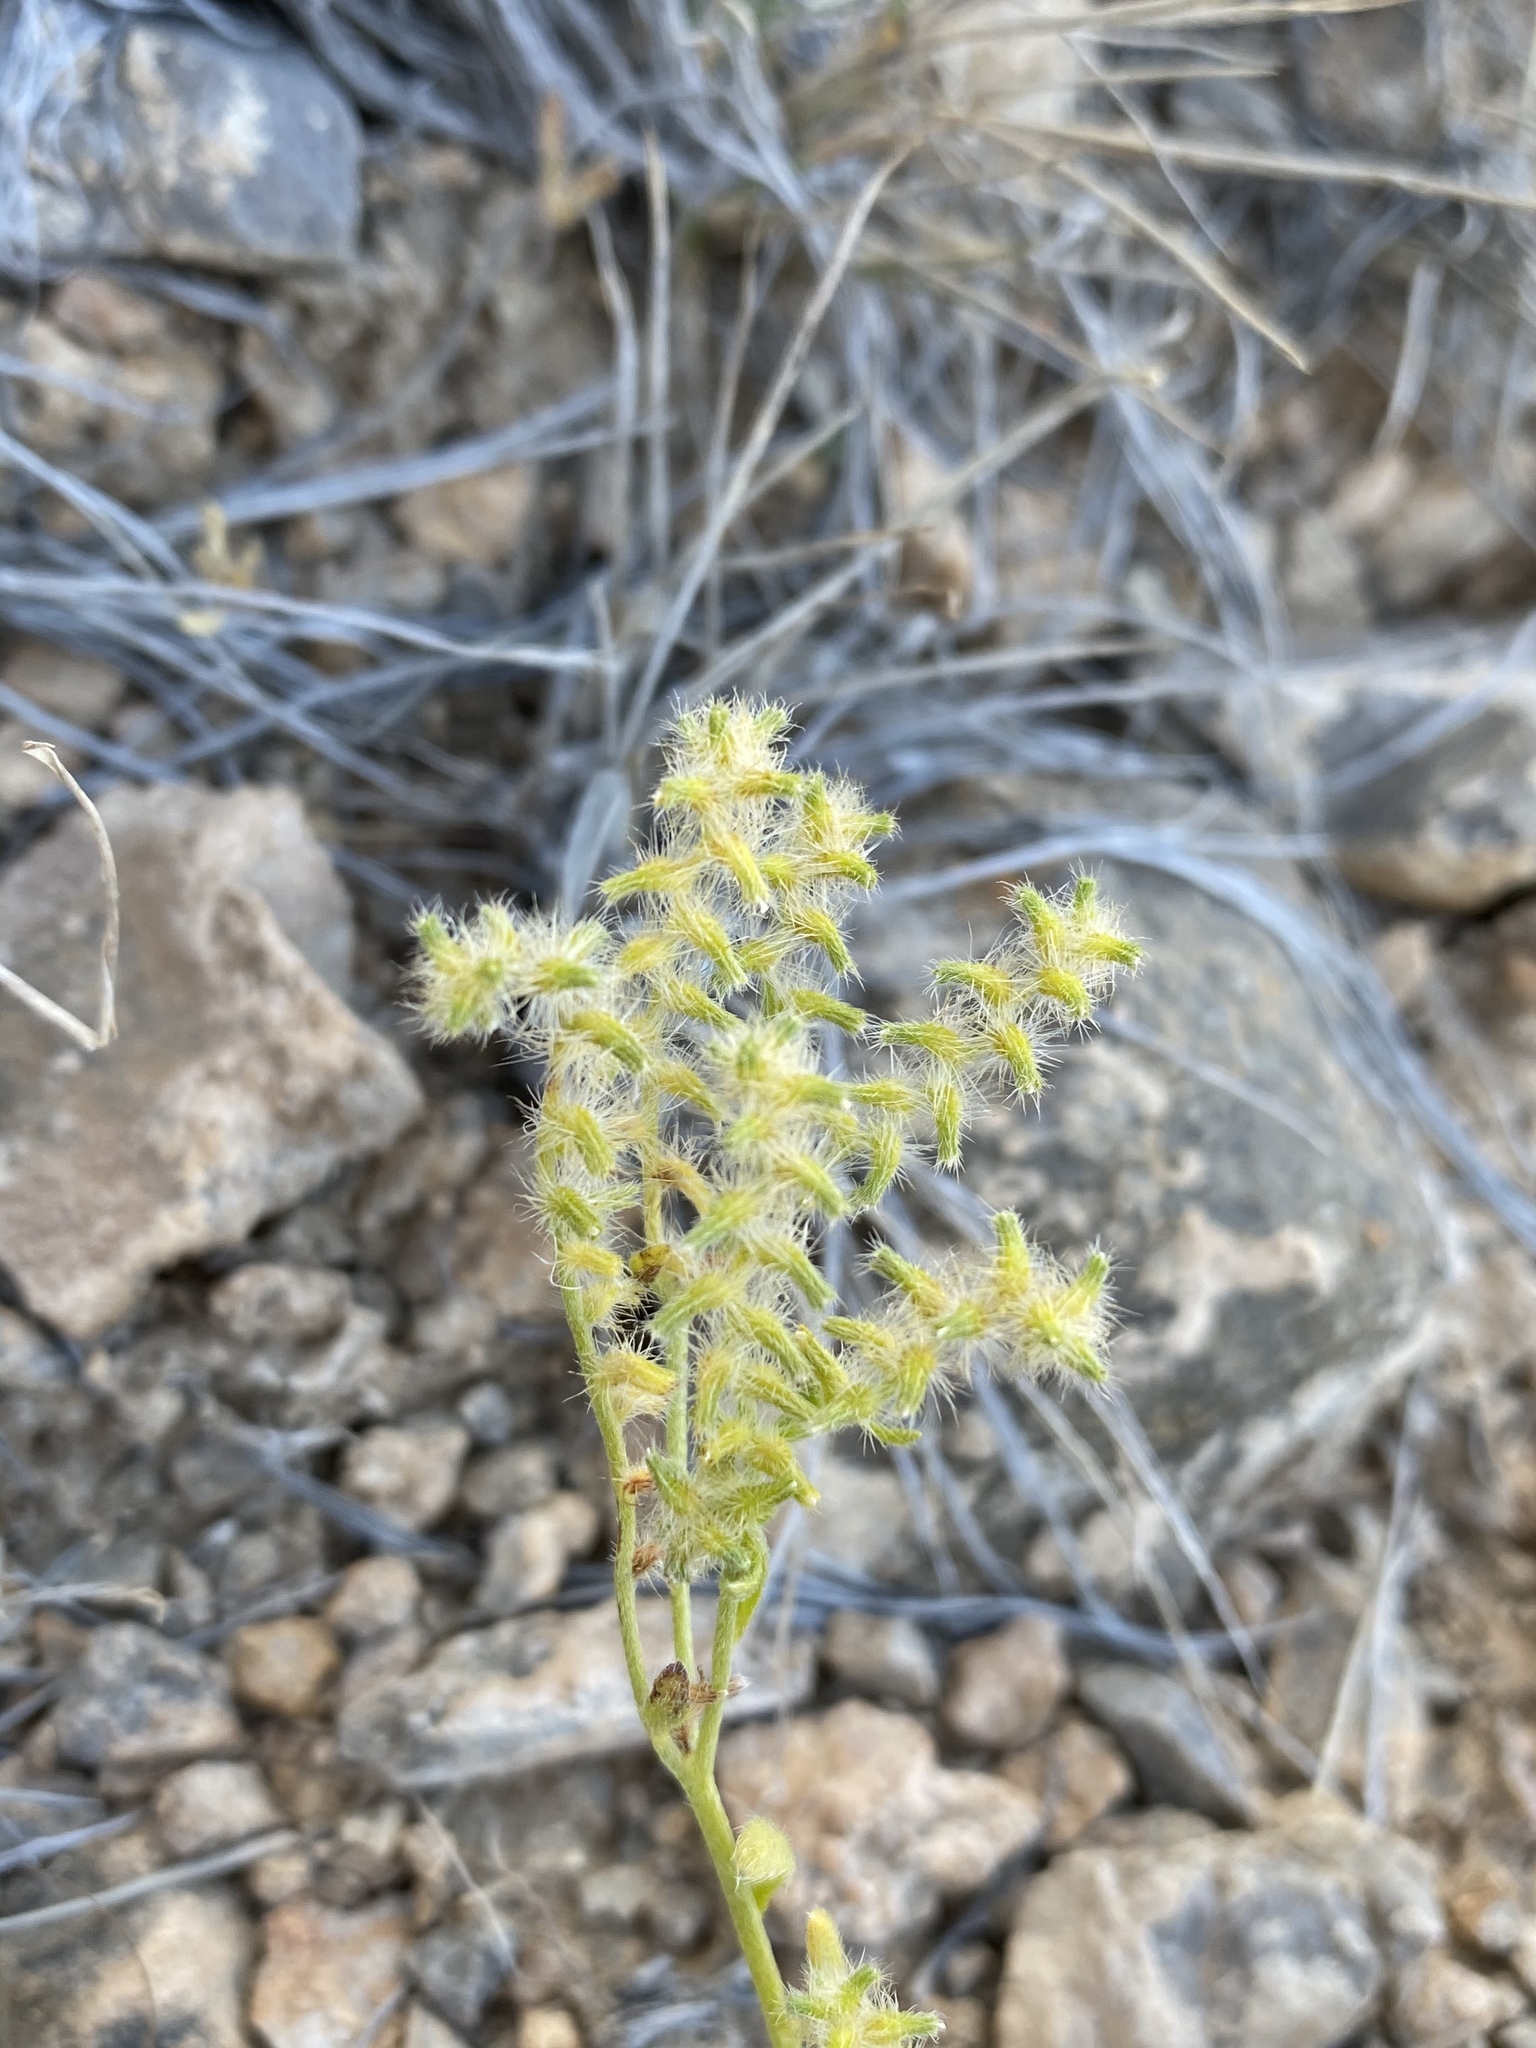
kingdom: Plantae
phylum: Tracheophyta
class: Magnoliopsida
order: Boraginales
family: Boraginaceae
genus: Cryptantha
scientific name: Cryptantha recurvata
